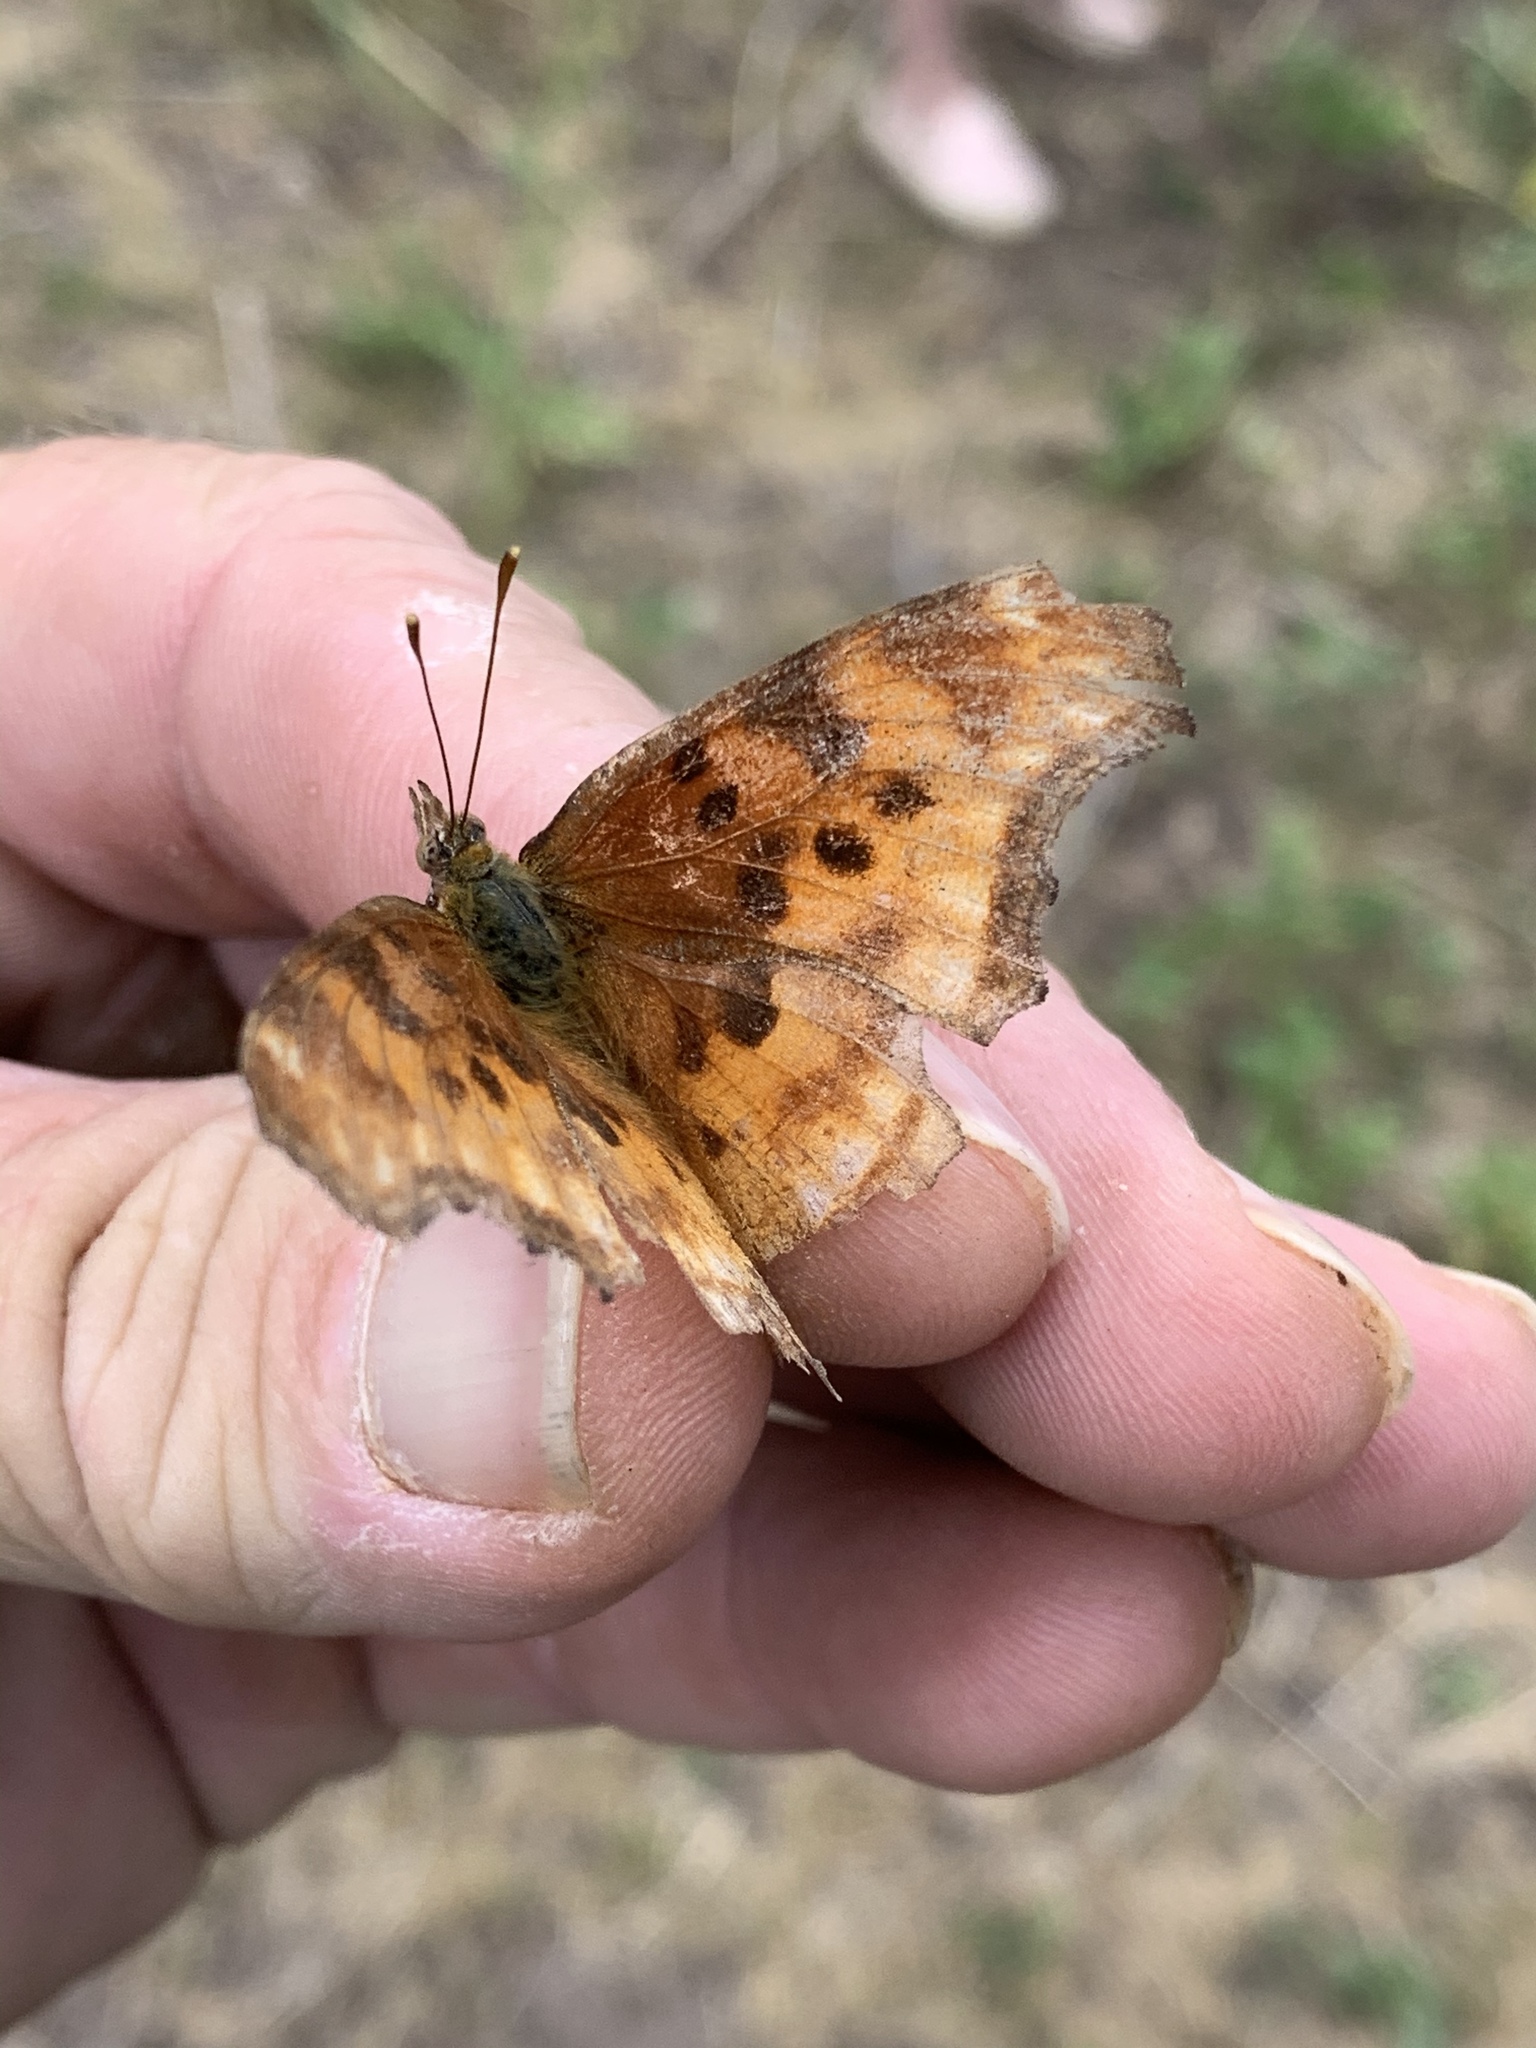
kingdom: Animalia
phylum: Arthropoda
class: Insecta
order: Lepidoptera
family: Nymphalidae
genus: Polygonia
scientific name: Polygonia satyrus
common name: Satyr angle wing
